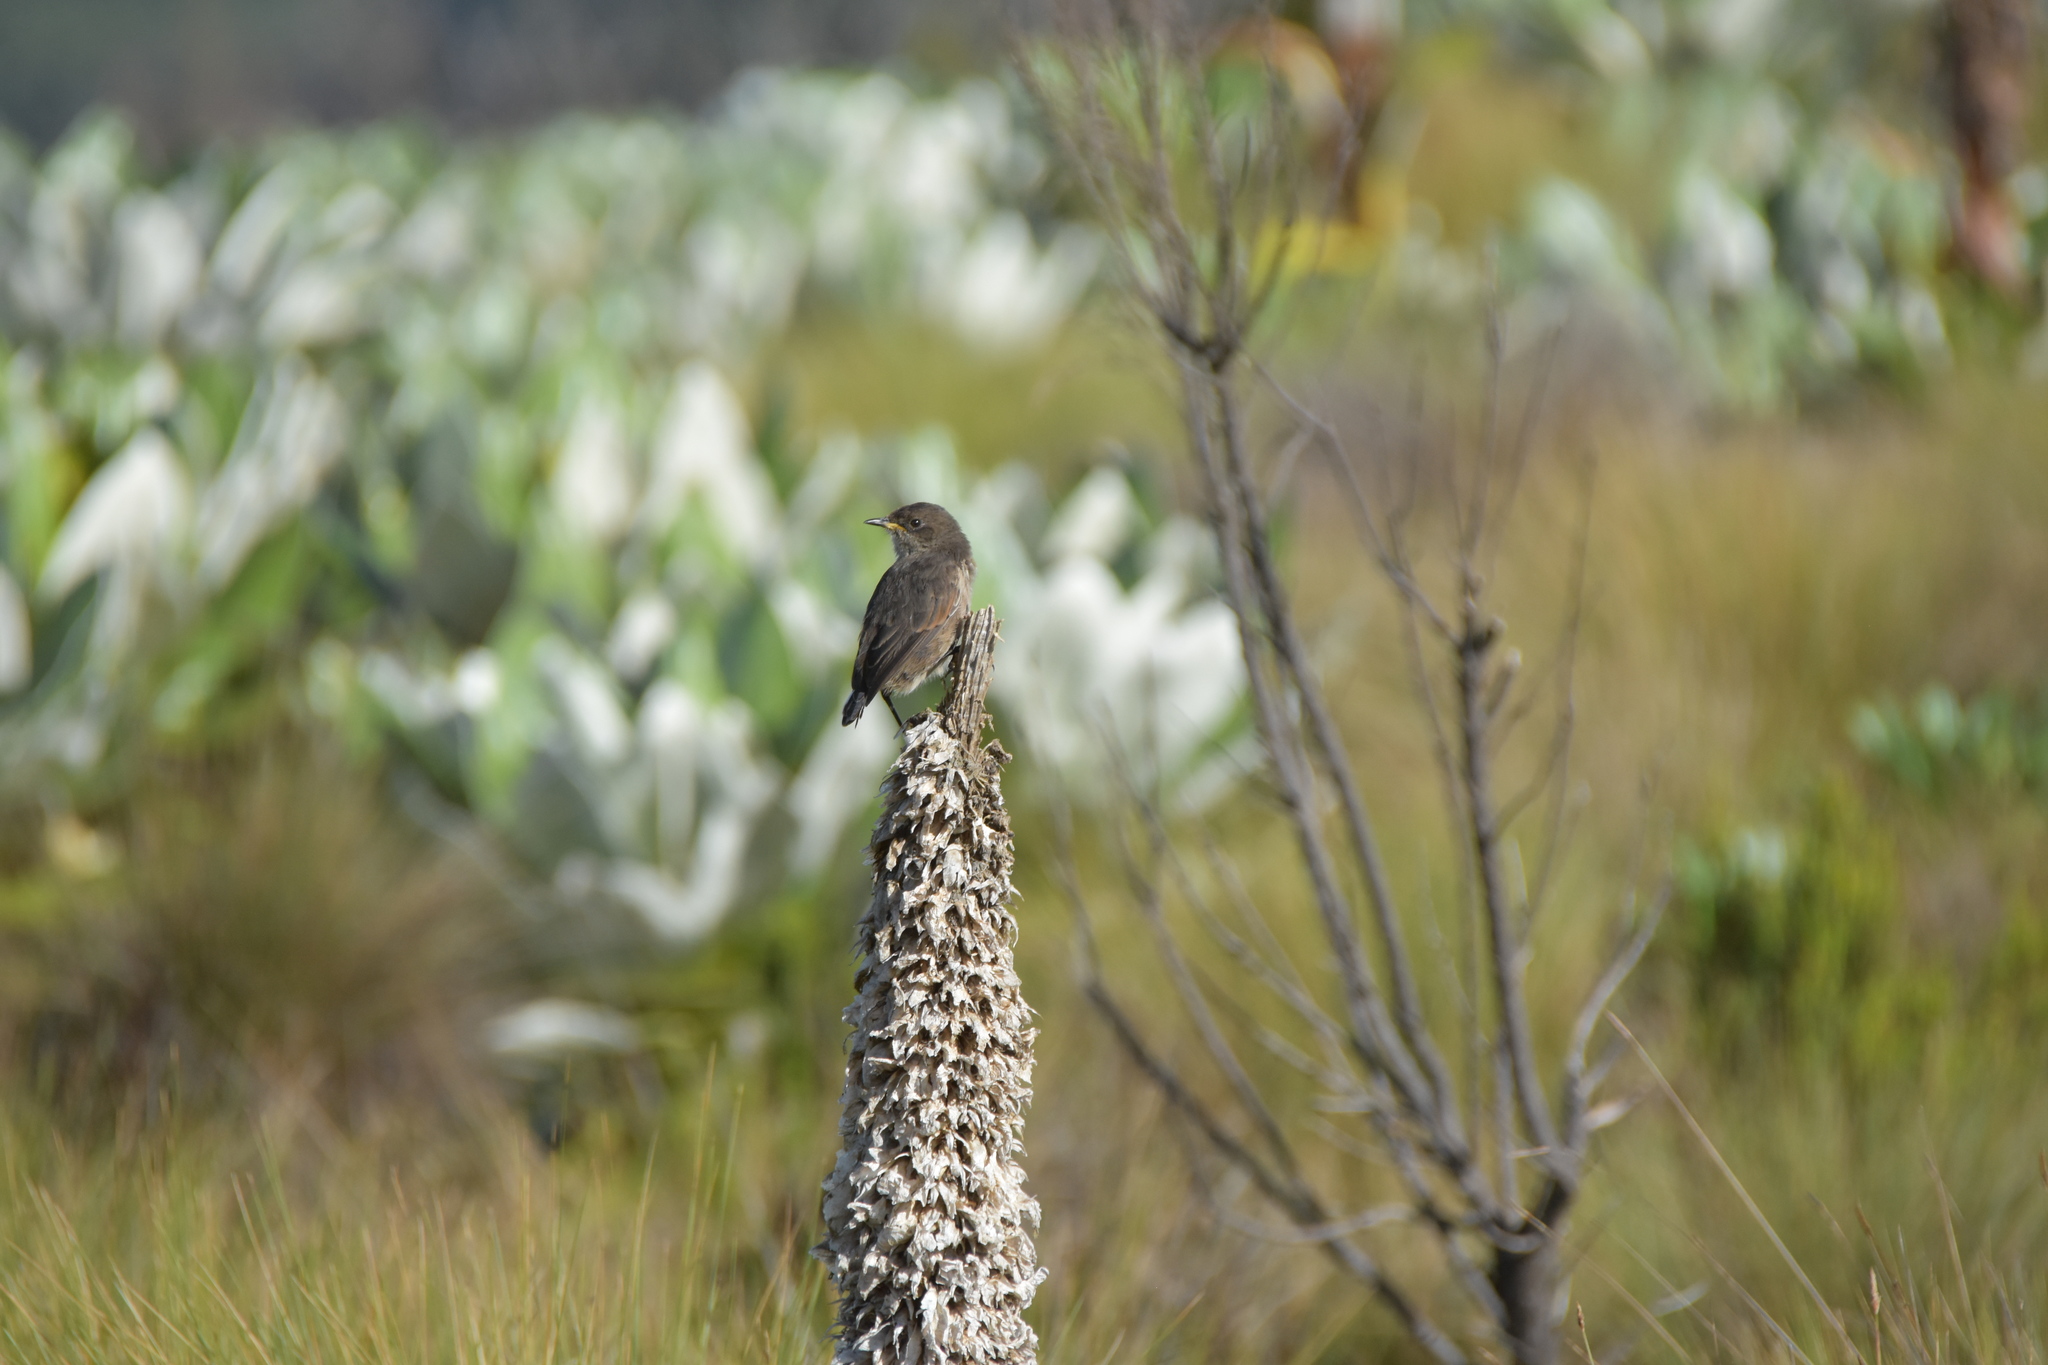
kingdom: Animalia
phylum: Chordata
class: Aves
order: Passeriformes
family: Muscicapidae
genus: Pinarochroa
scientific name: Pinarochroa sordida
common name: Moorland chat
